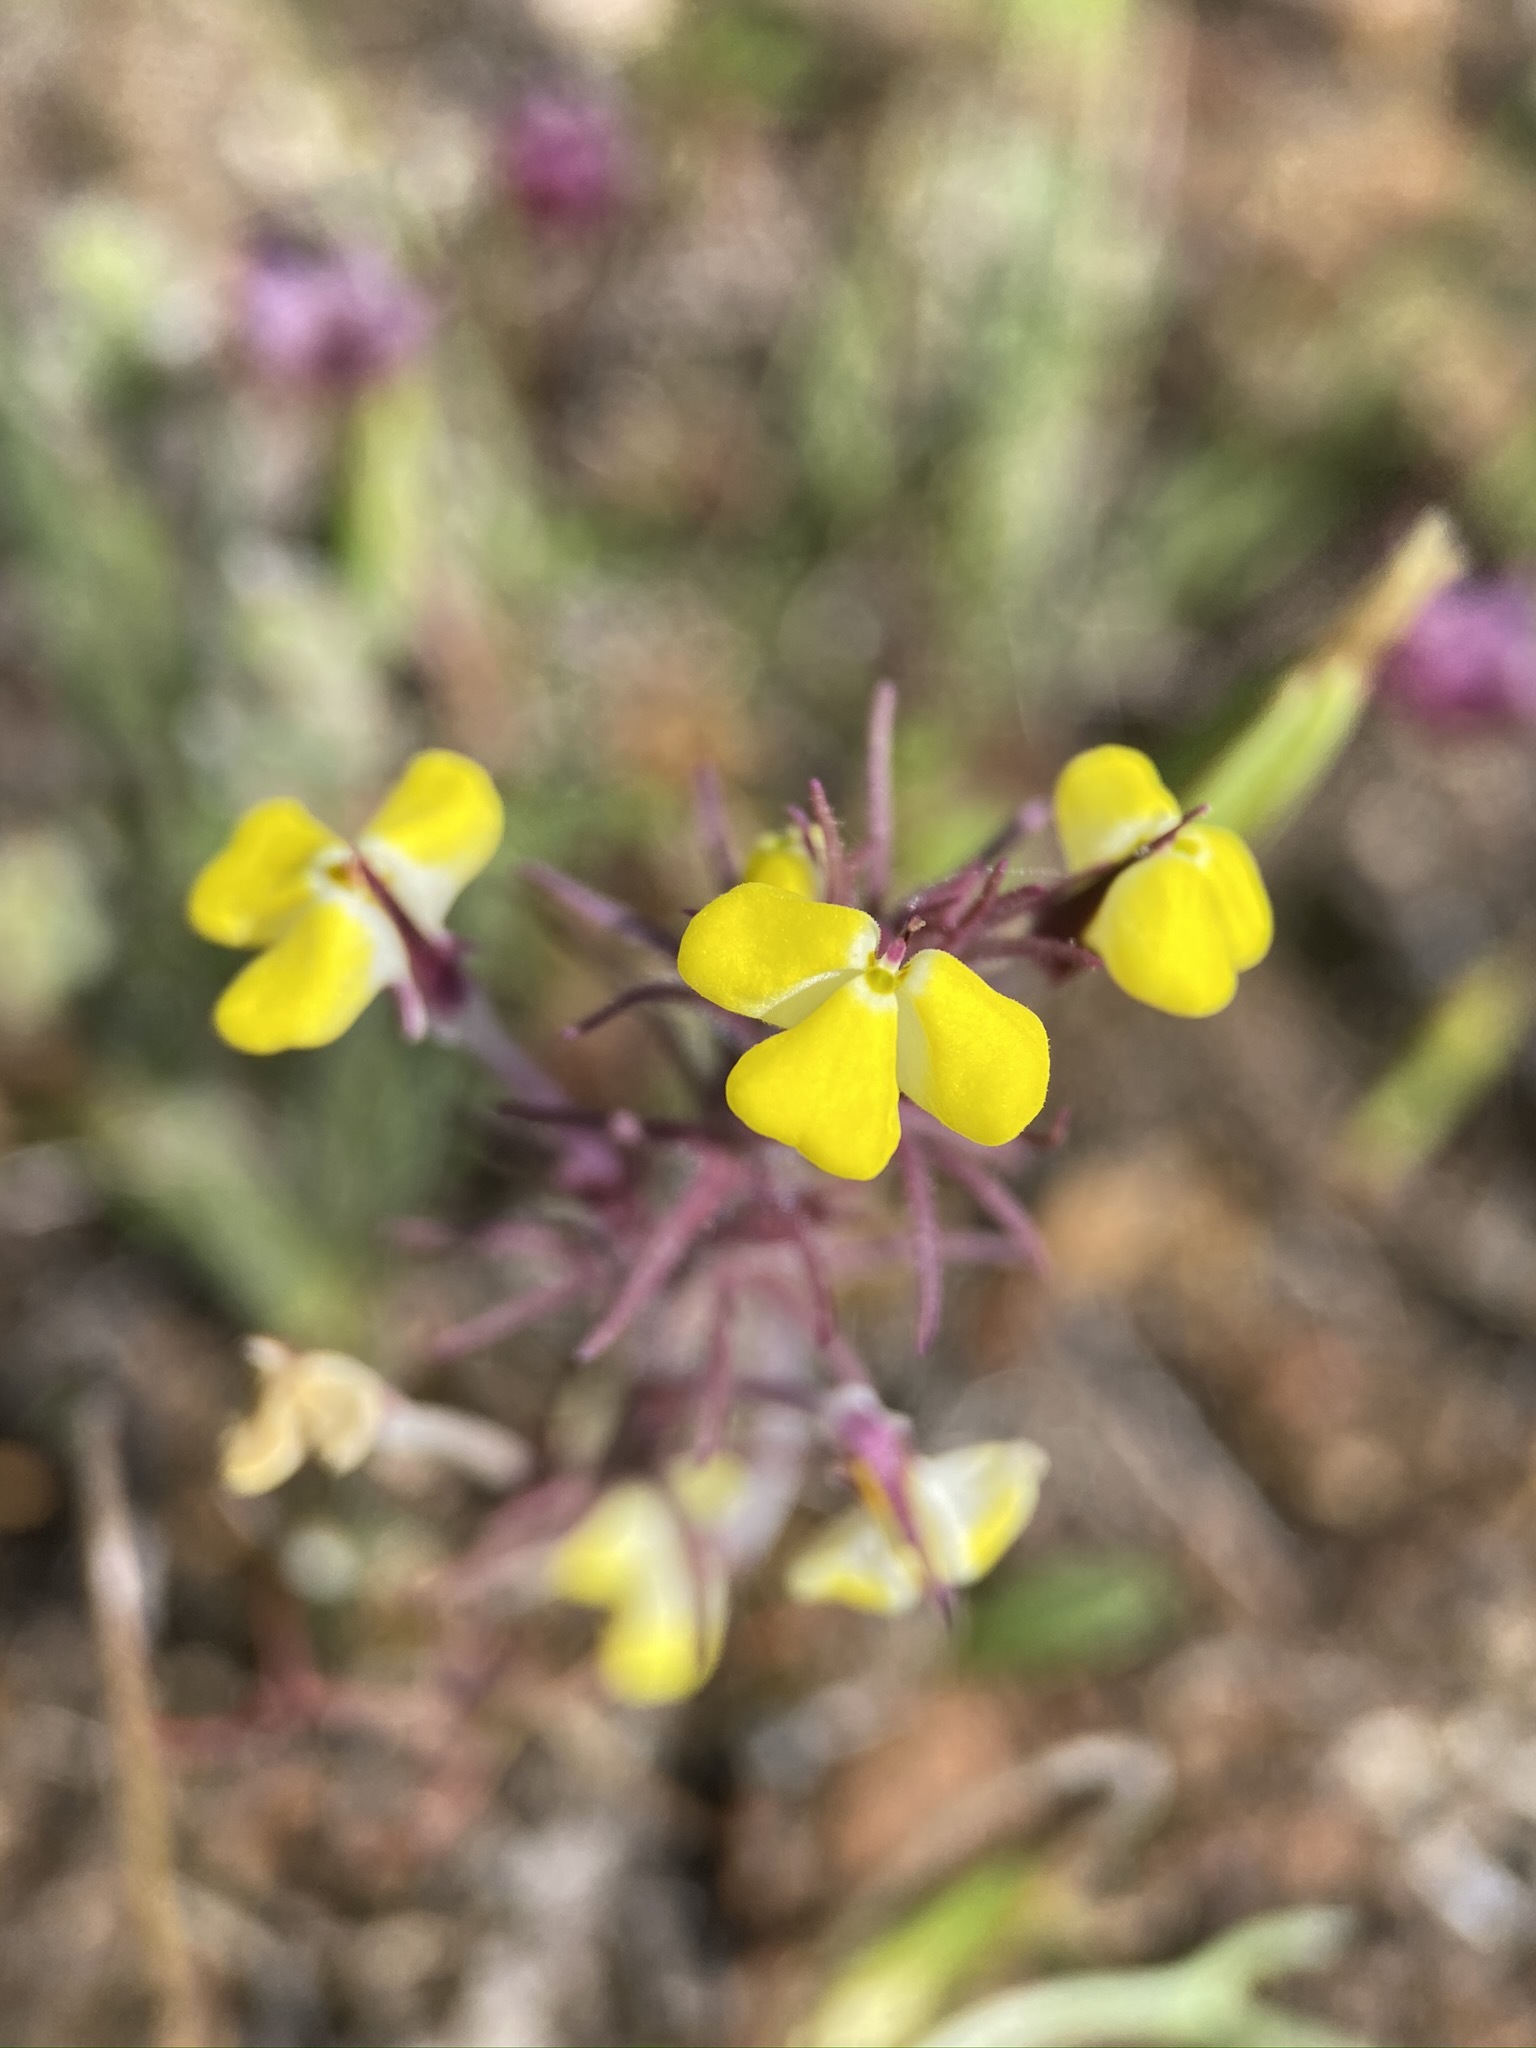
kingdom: Plantae
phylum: Tracheophyta
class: Magnoliopsida
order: Lamiales
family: Orobanchaceae
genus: Triphysaria
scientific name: Triphysaria eriantha
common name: Johnny-tuck
